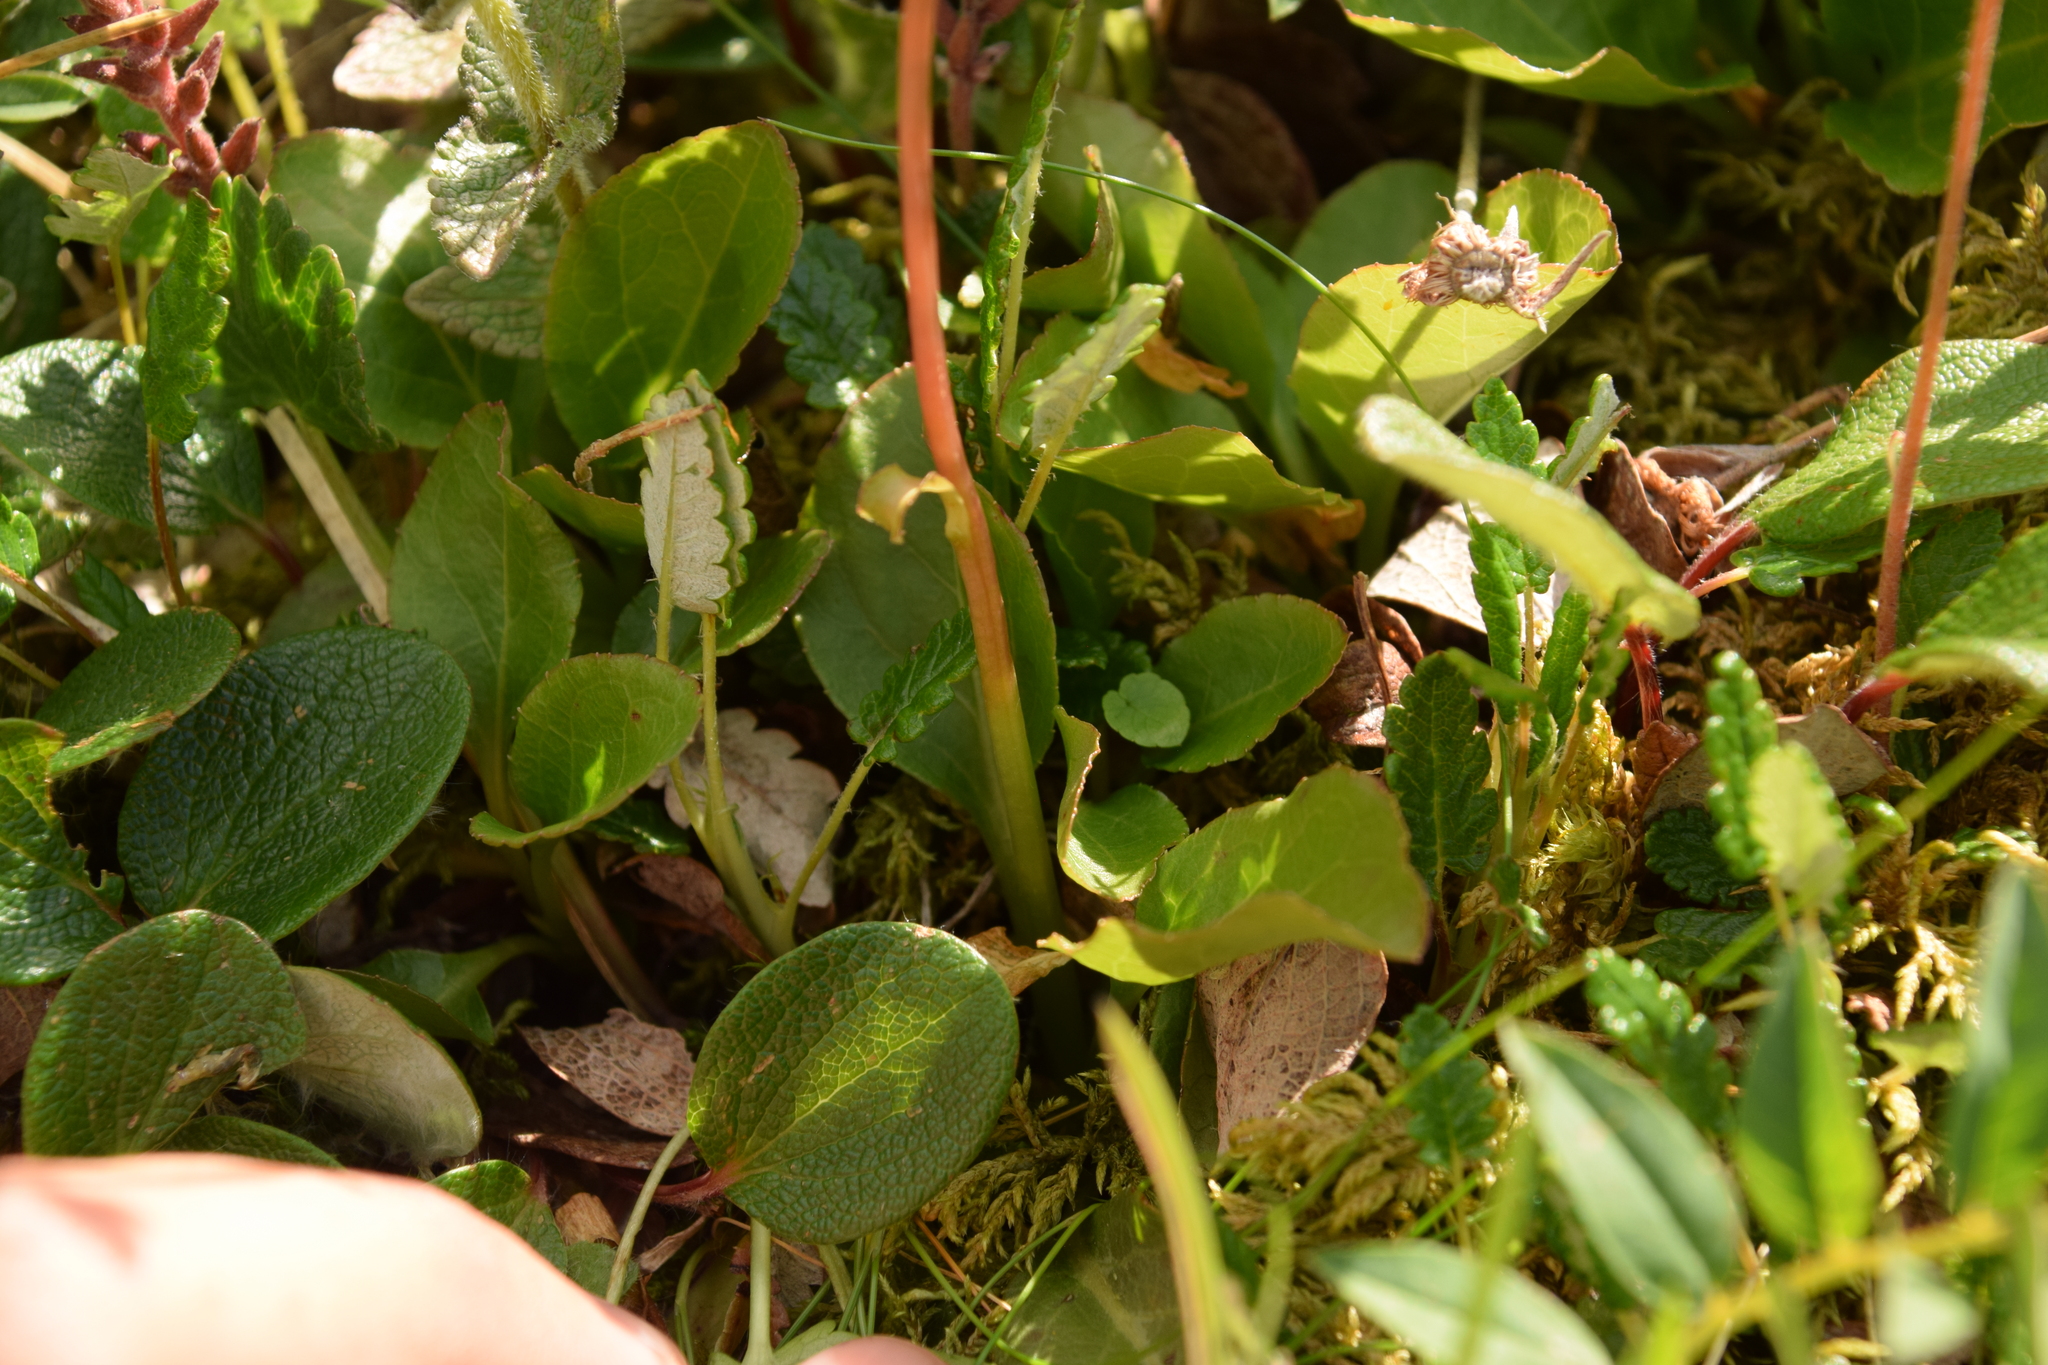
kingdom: Plantae
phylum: Tracheophyta
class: Magnoliopsida
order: Malpighiales
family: Salicaceae
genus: Salix
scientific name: Salix reticulata
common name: Net-leaved willow
